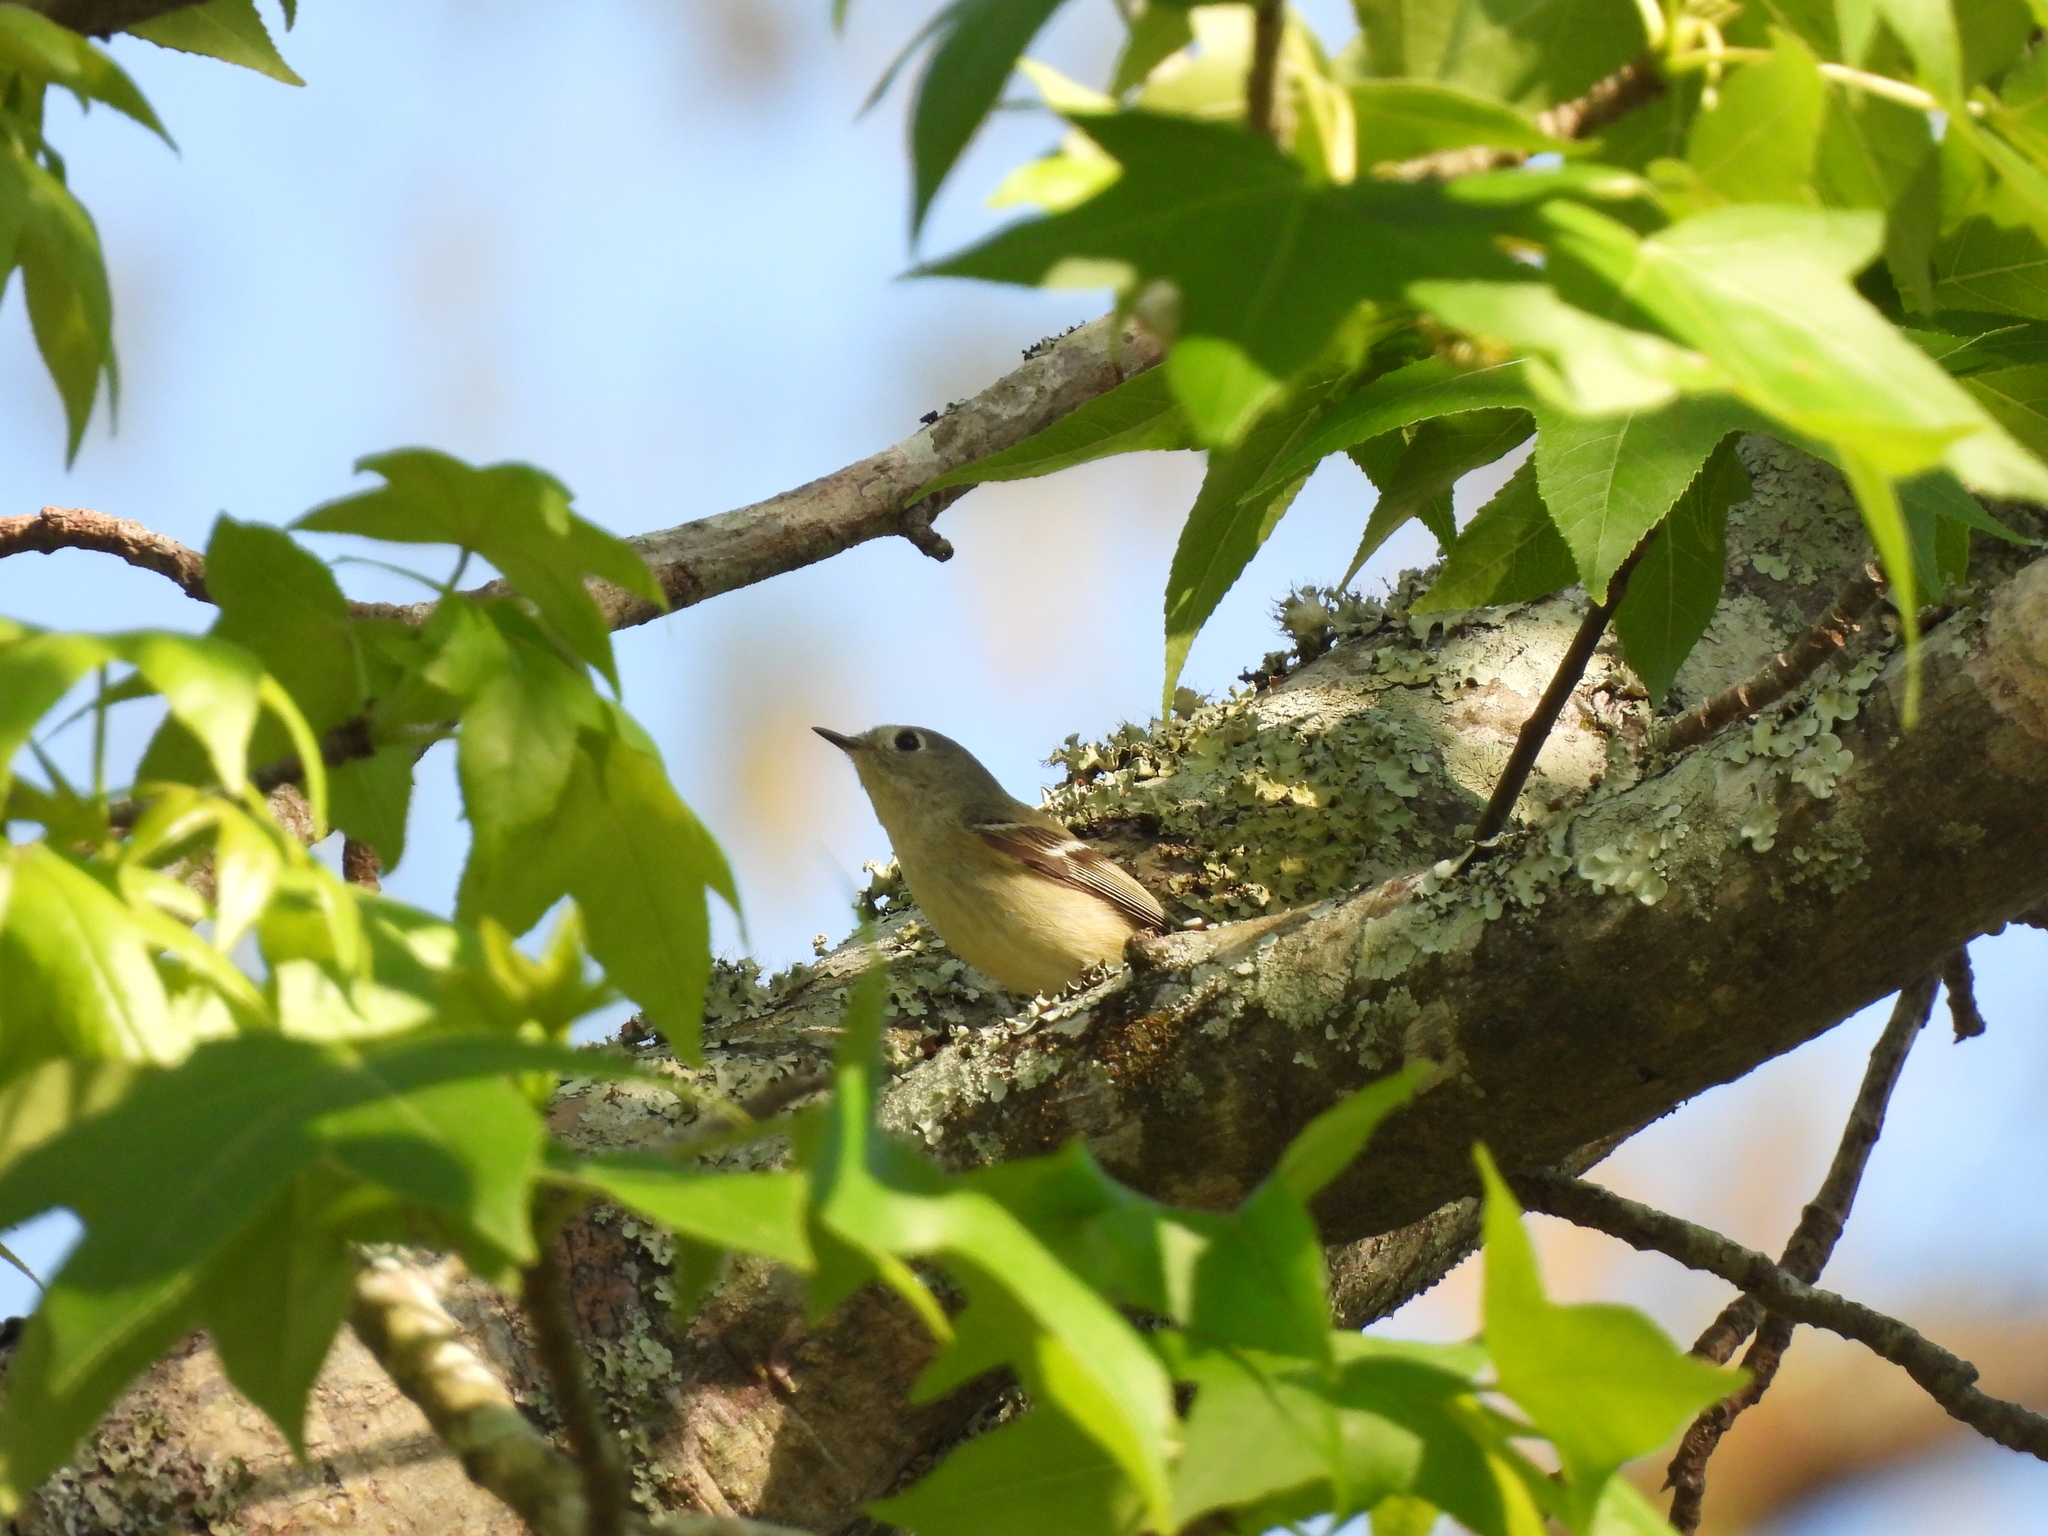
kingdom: Animalia
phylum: Chordata
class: Aves
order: Passeriformes
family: Regulidae
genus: Regulus
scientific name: Regulus calendula
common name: Ruby-crowned kinglet
